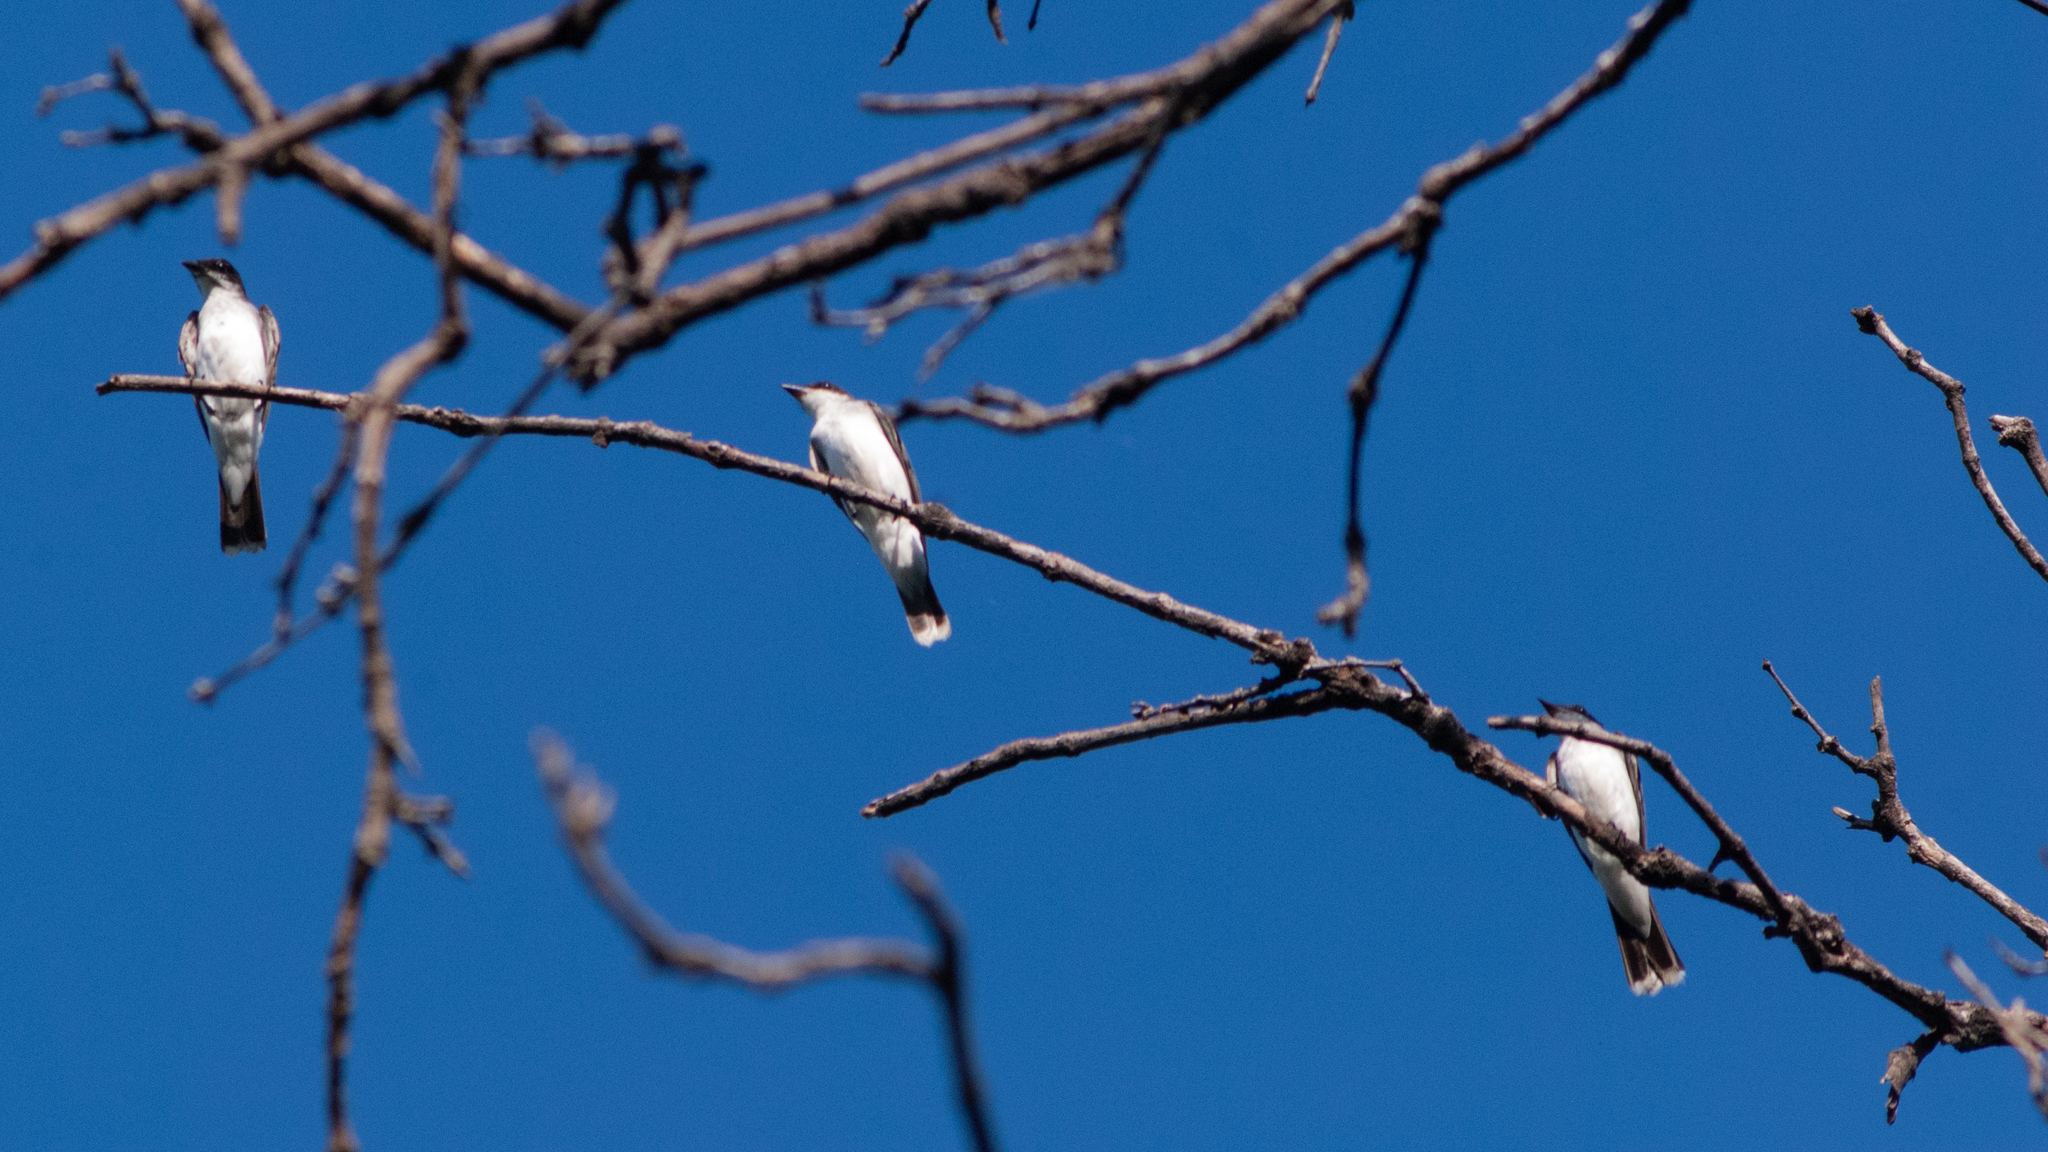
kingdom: Animalia
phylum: Chordata
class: Aves
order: Passeriformes
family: Tyrannidae
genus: Tyrannus
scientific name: Tyrannus tyrannus
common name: Eastern kingbird
